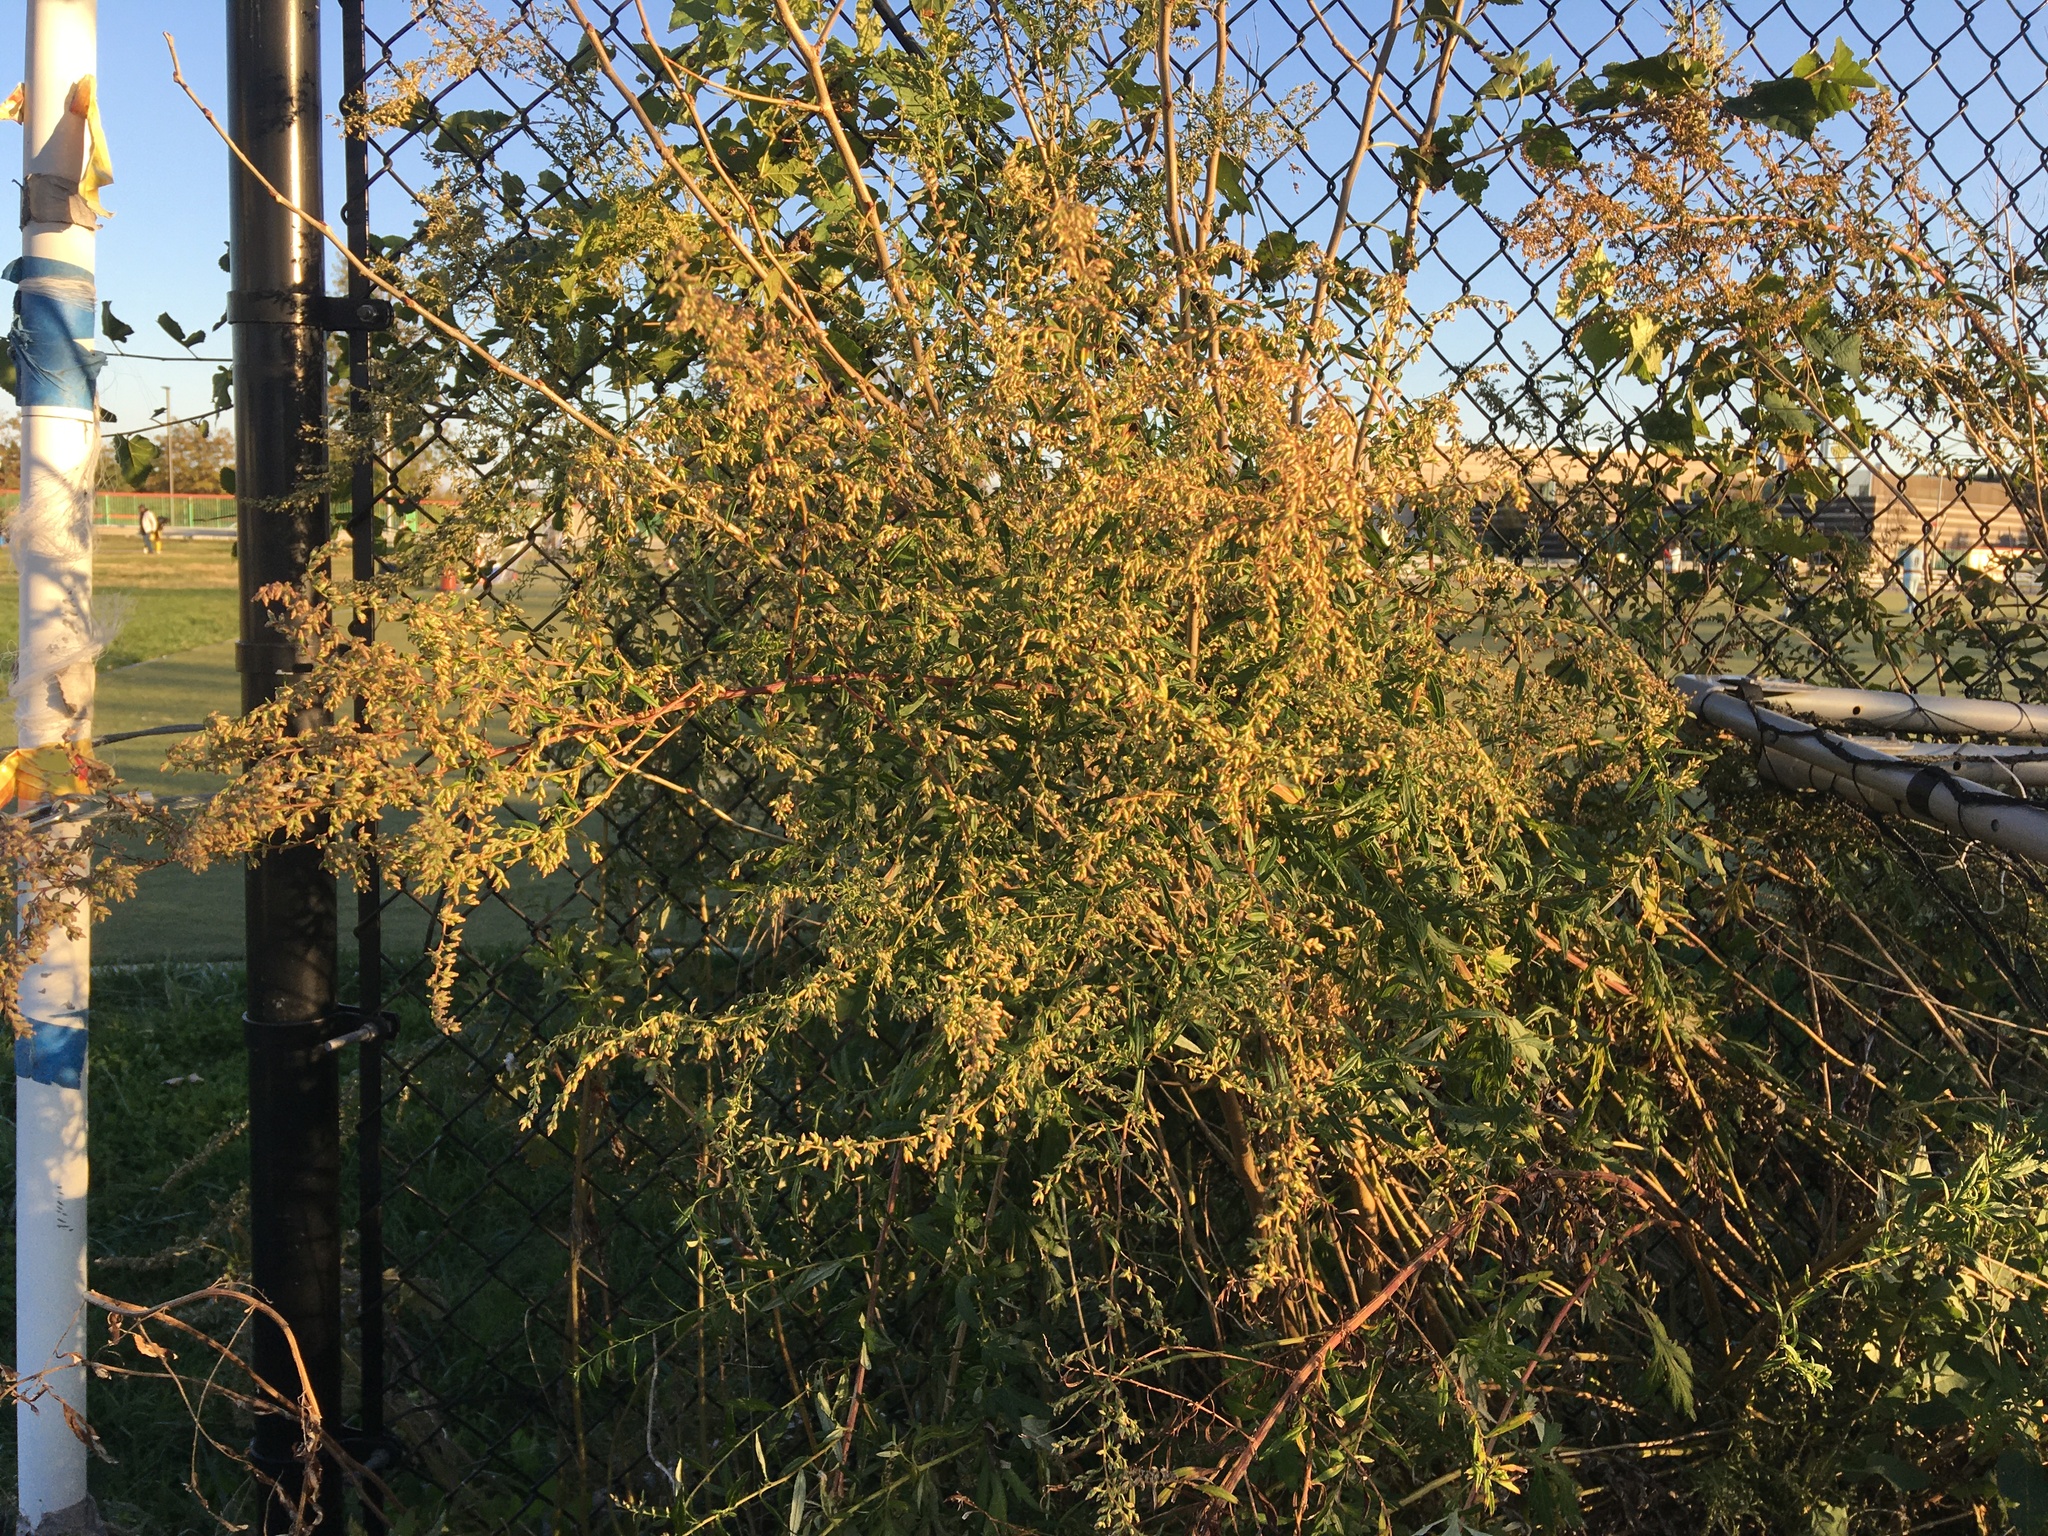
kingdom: Plantae
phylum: Tracheophyta
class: Magnoliopsida
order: Asterales
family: Asteraceae
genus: Artemisia
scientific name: Artemisia vulgaris
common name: Mugwort
